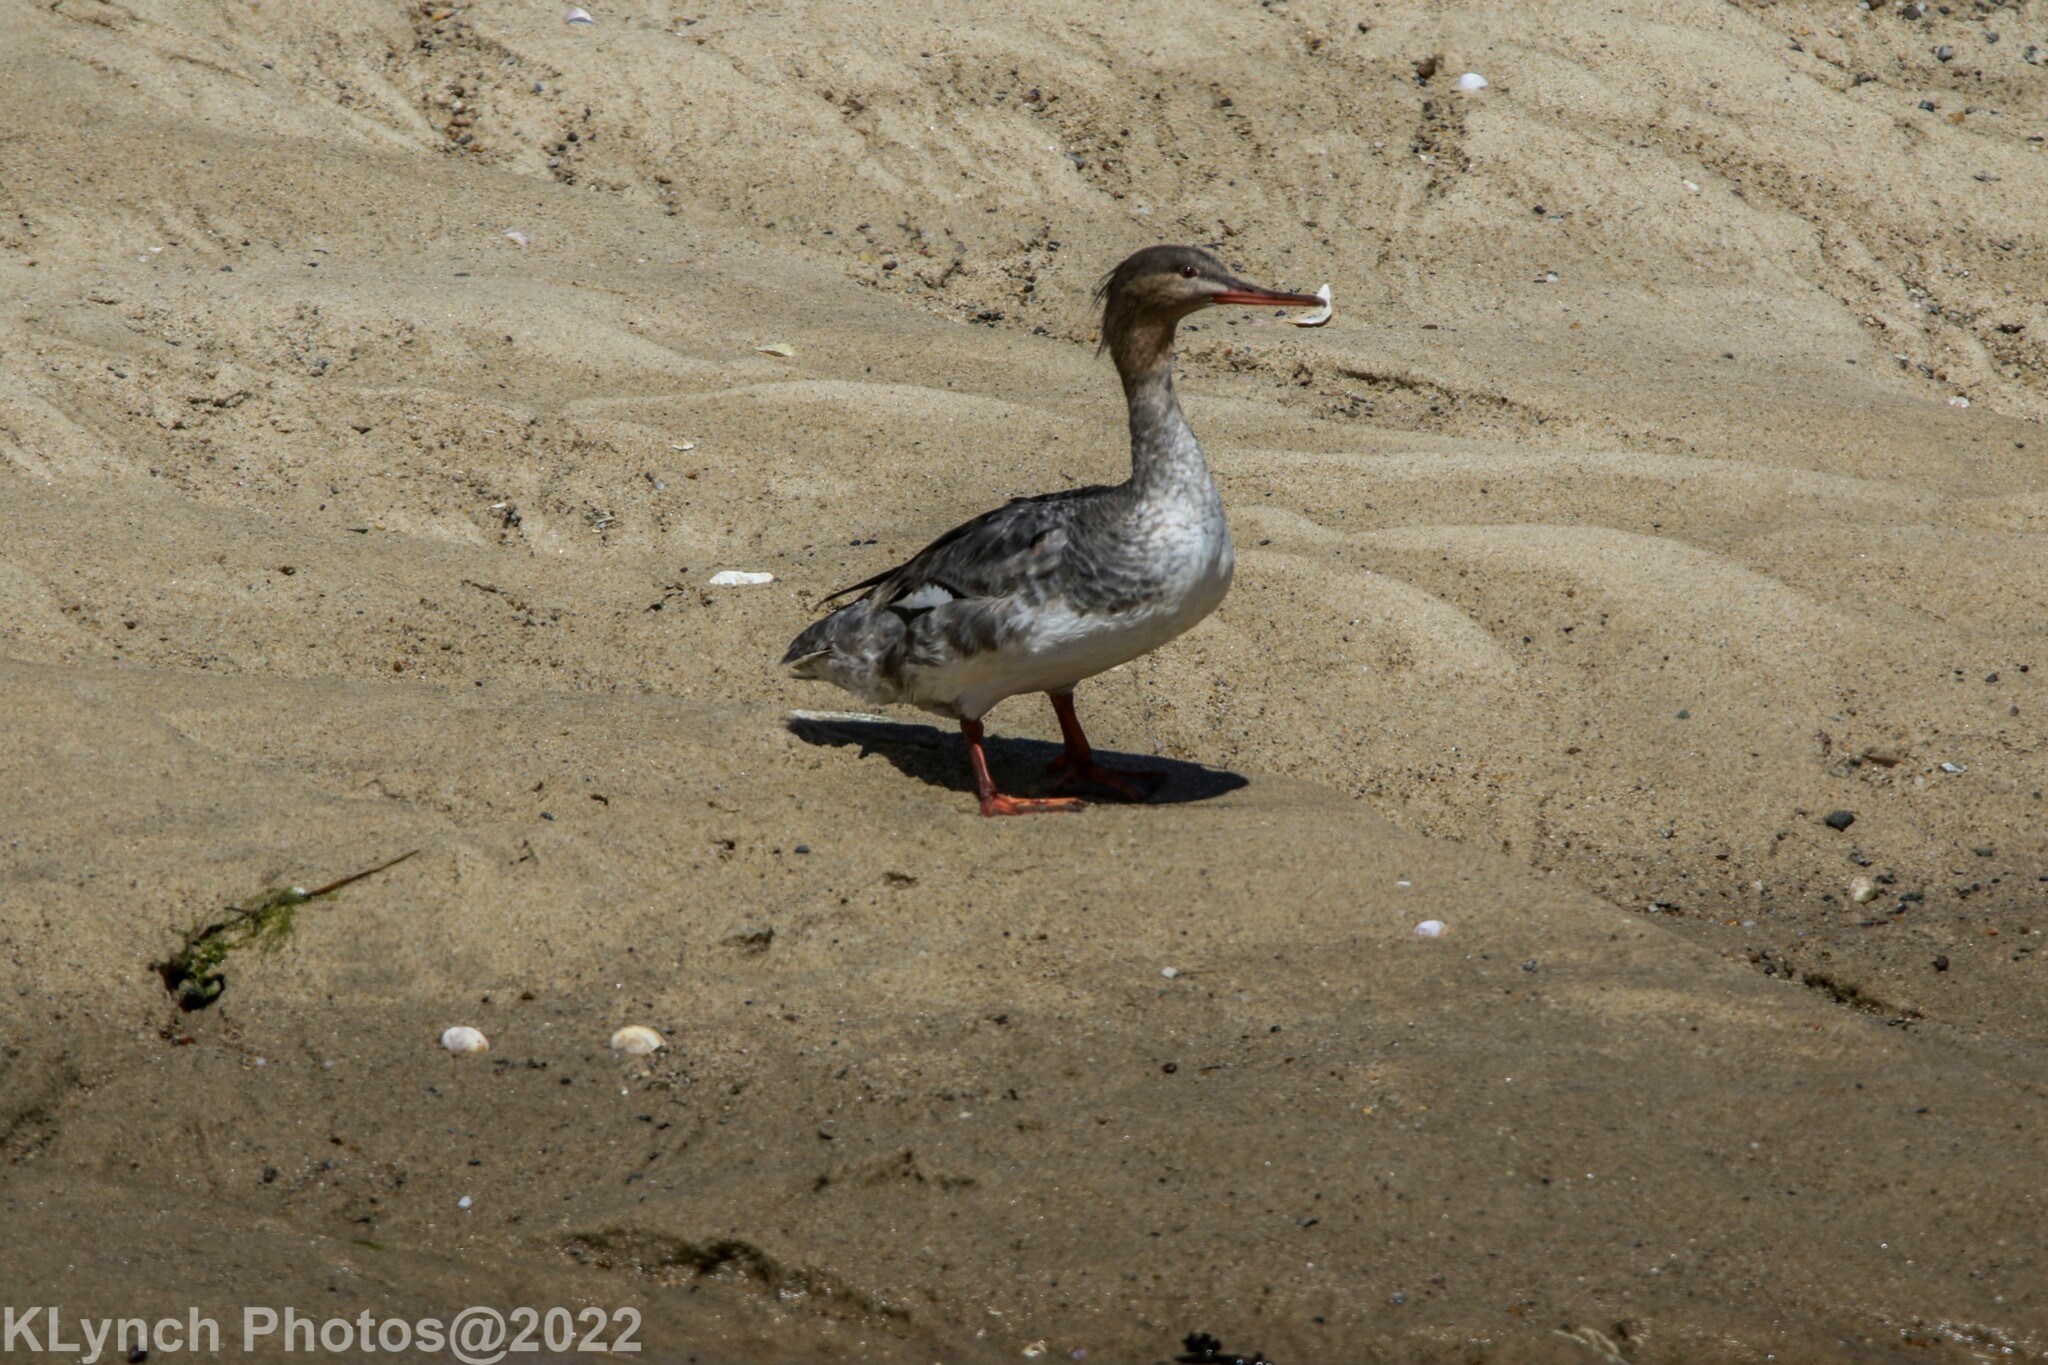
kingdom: Animalia
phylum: Chordata
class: Aves
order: Anseriformes
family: Anatidae
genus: Mergus
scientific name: Mergus serrator
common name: Red-breasted merganser
